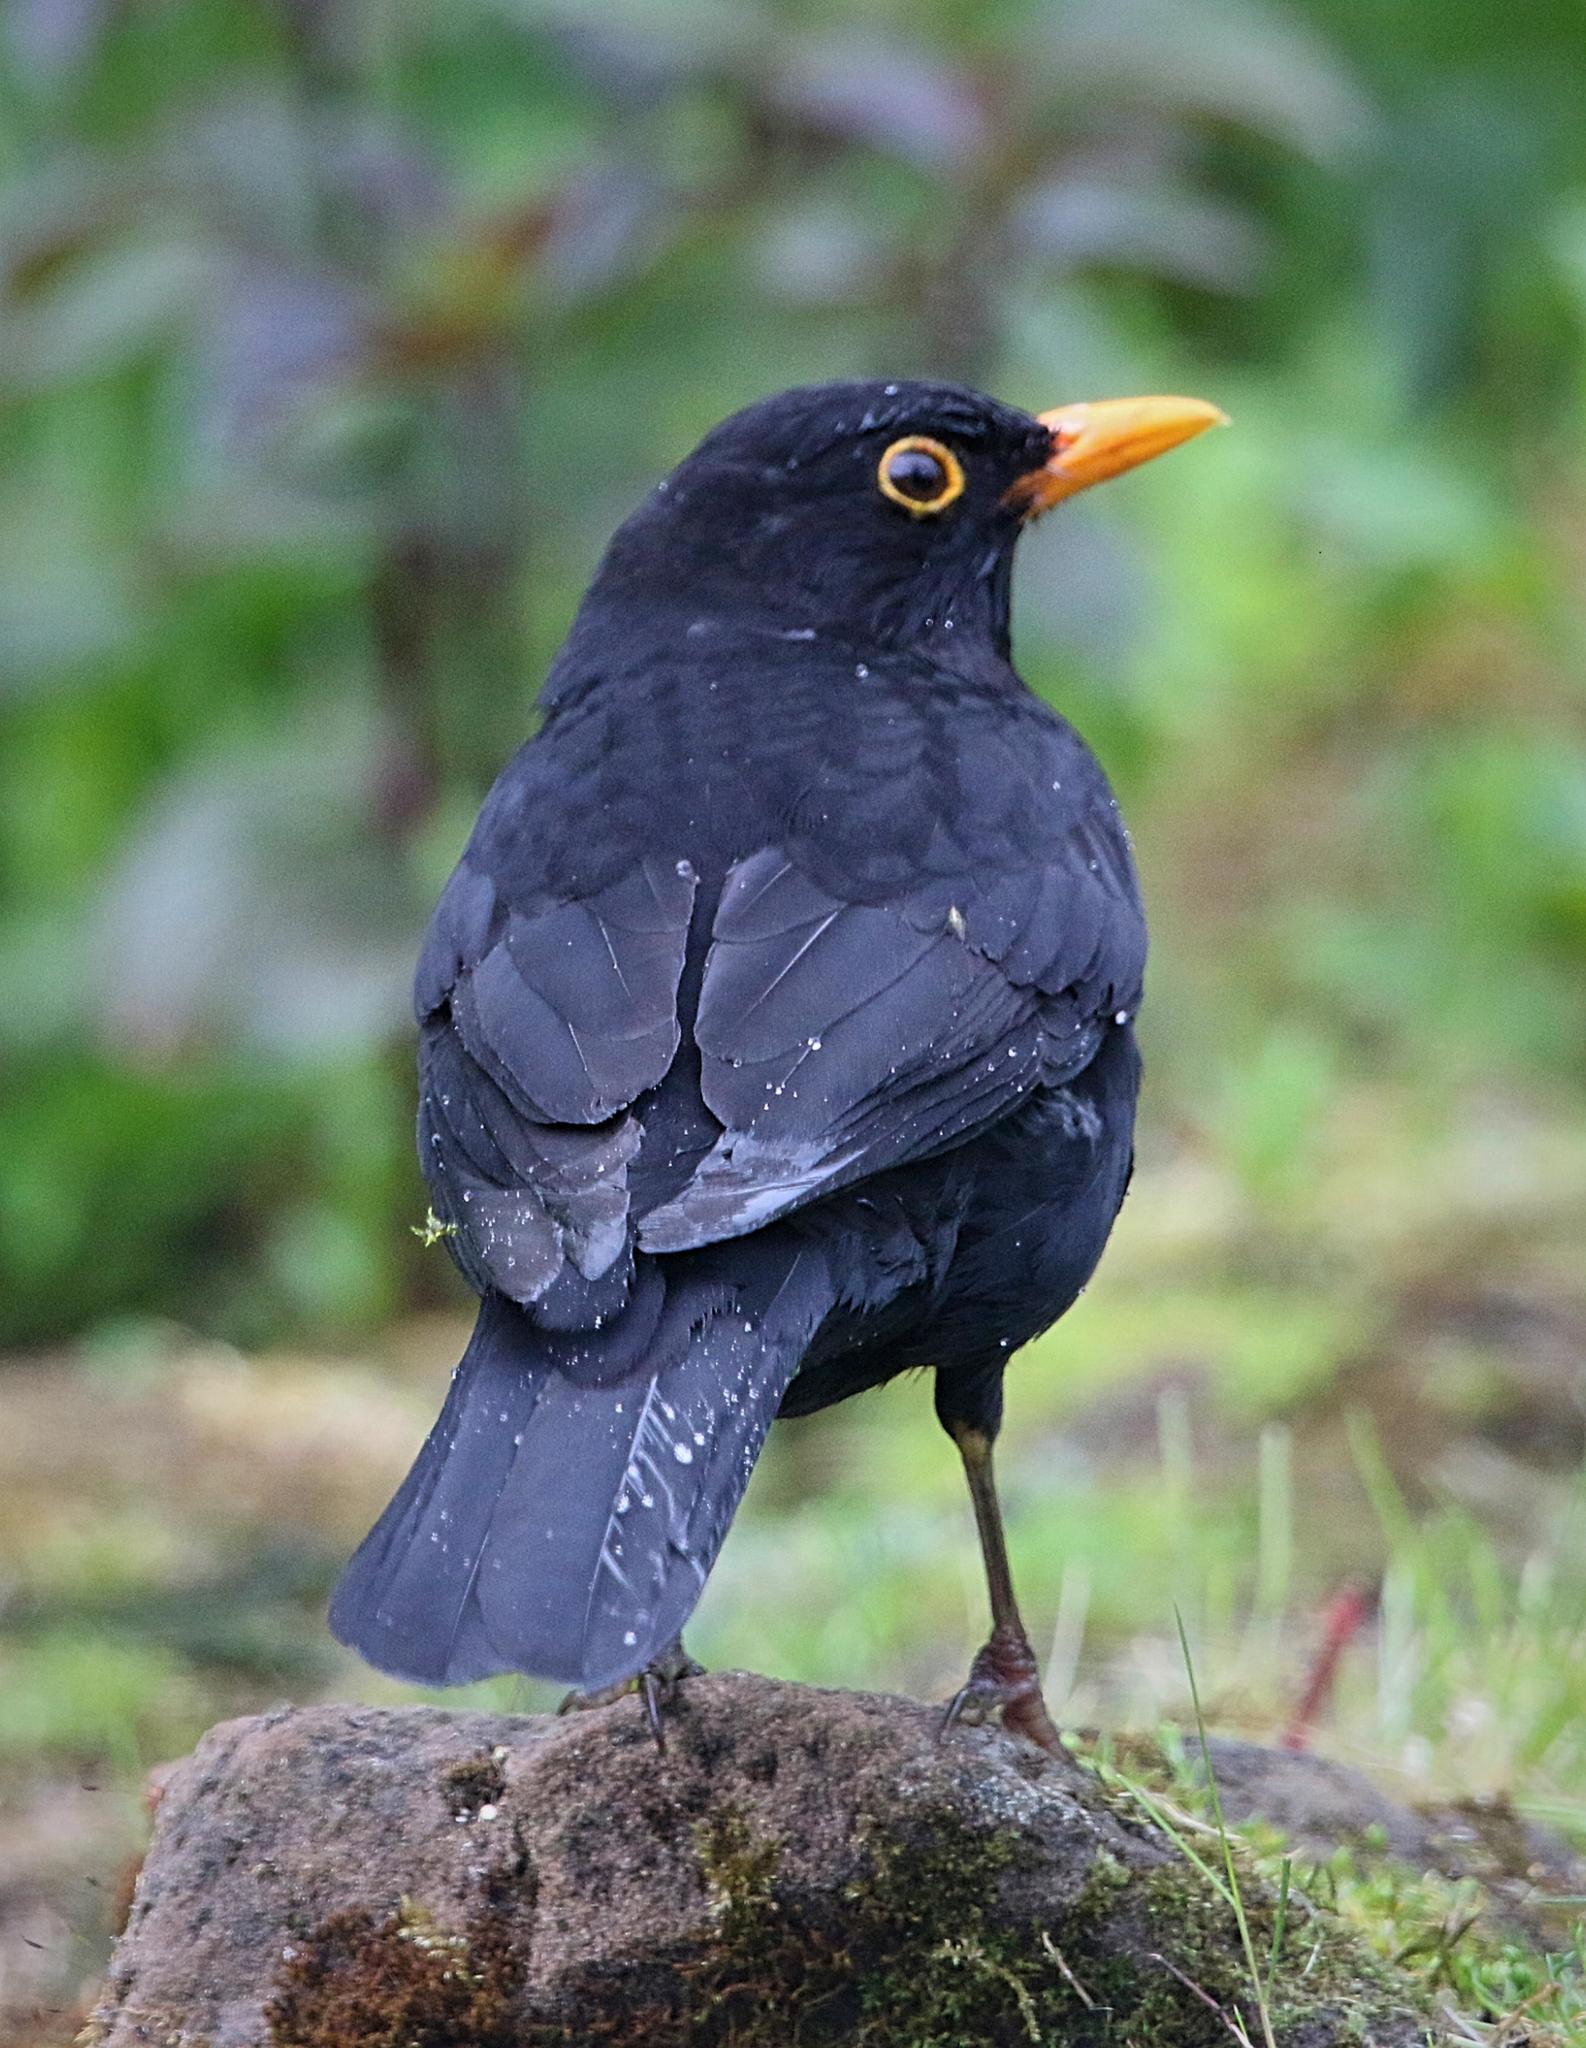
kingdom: Animalia
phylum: Chordata
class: Aves
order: Passeriformes
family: Turdidae
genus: Turdus
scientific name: Turdus merula
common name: Common blackbird
